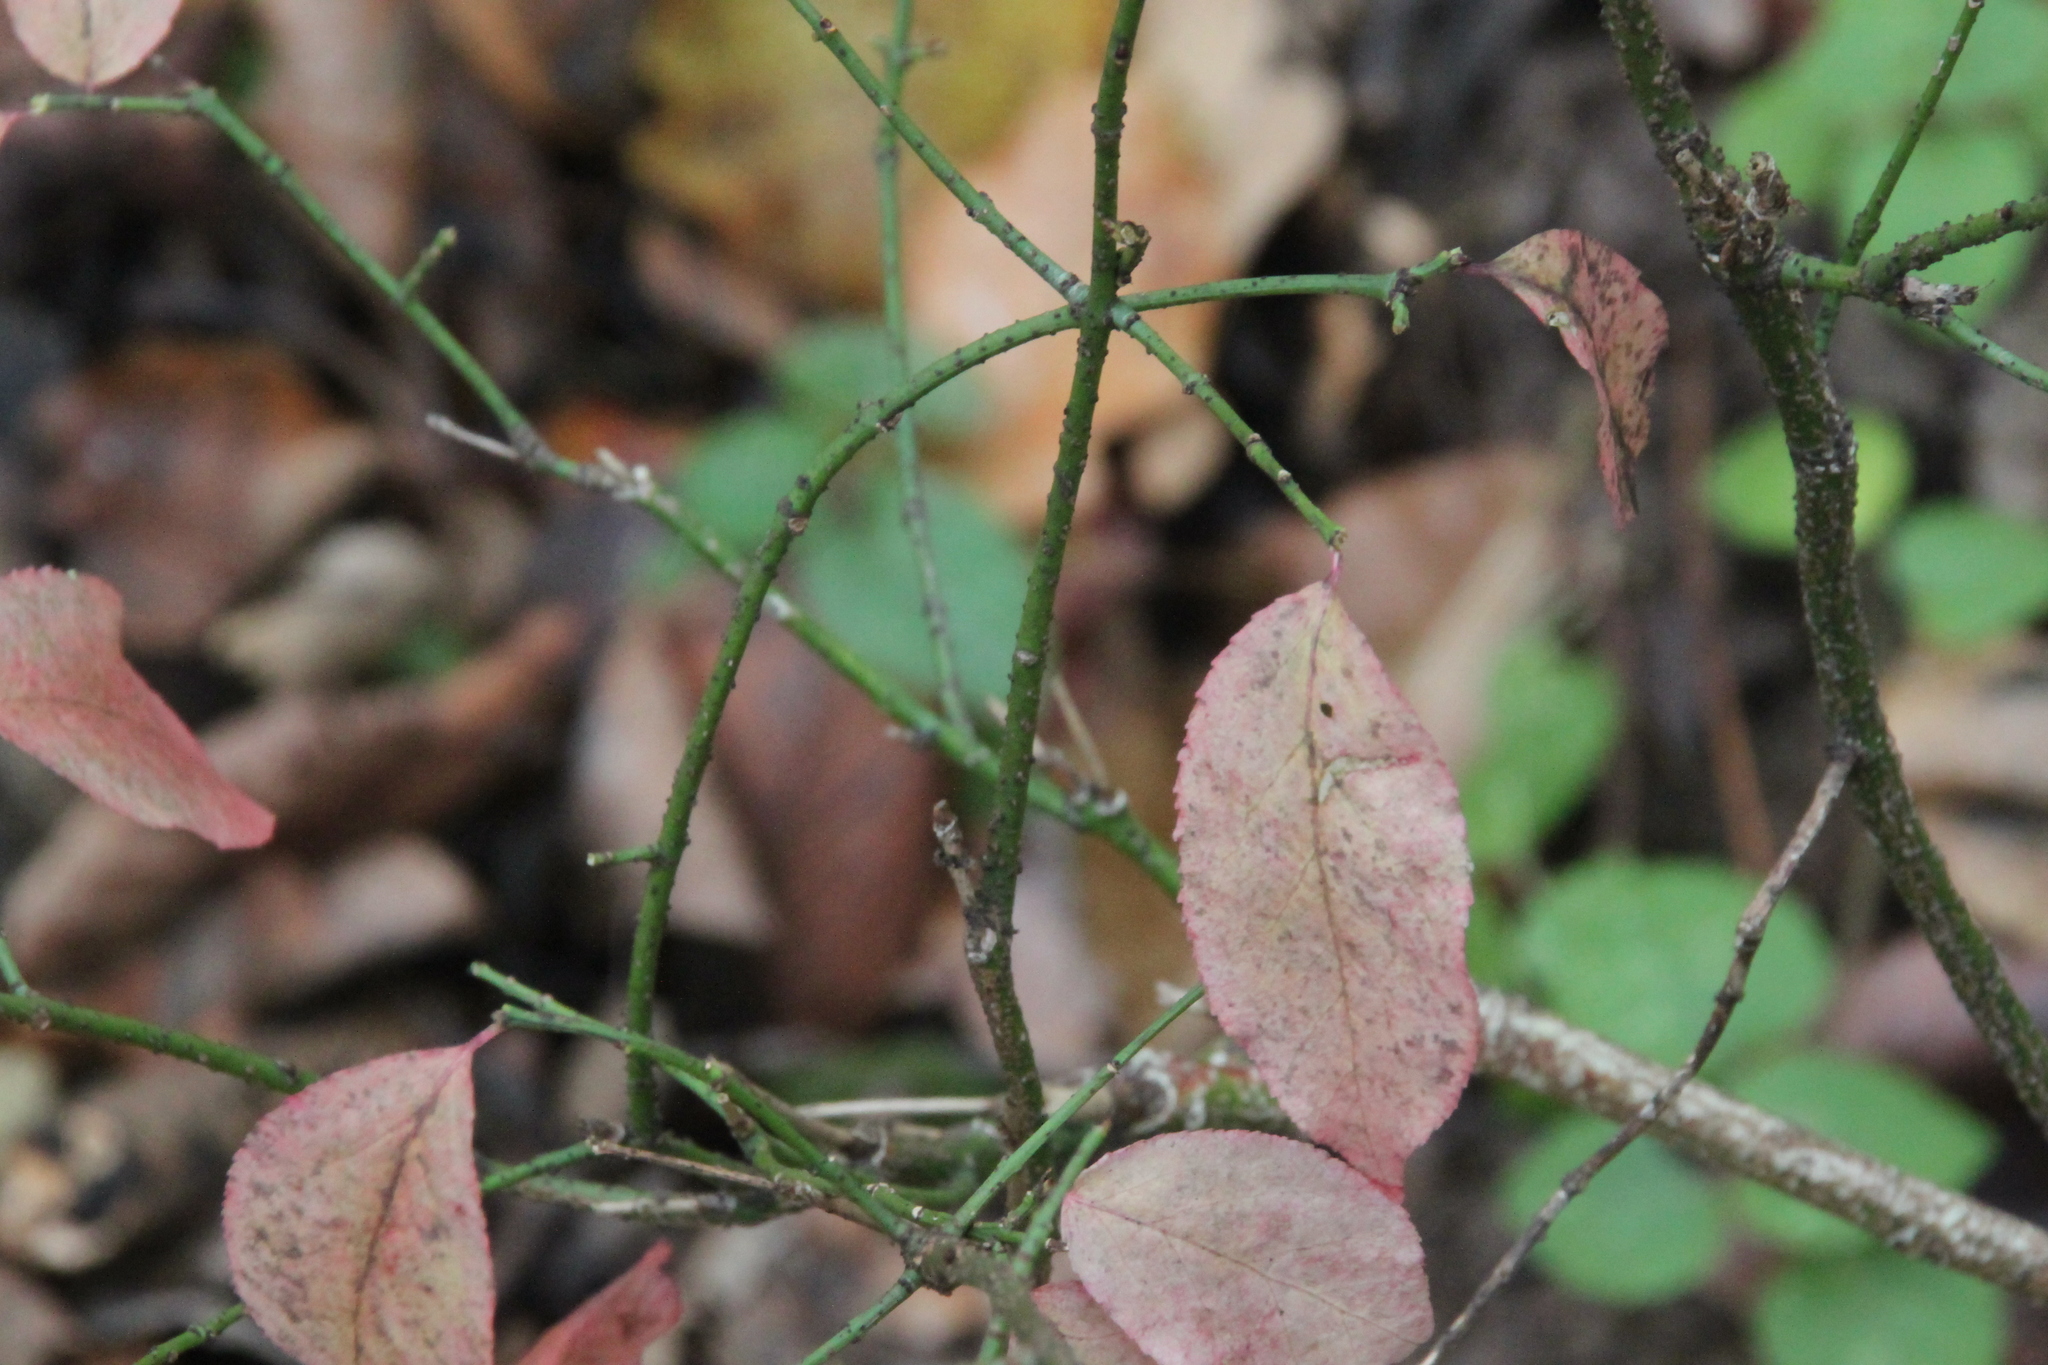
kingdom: Plantae
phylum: Tracheophyta
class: Magnoliopsida
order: Celastrales
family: Celastraceae
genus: Euonymus
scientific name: Euonymus verrucosus
